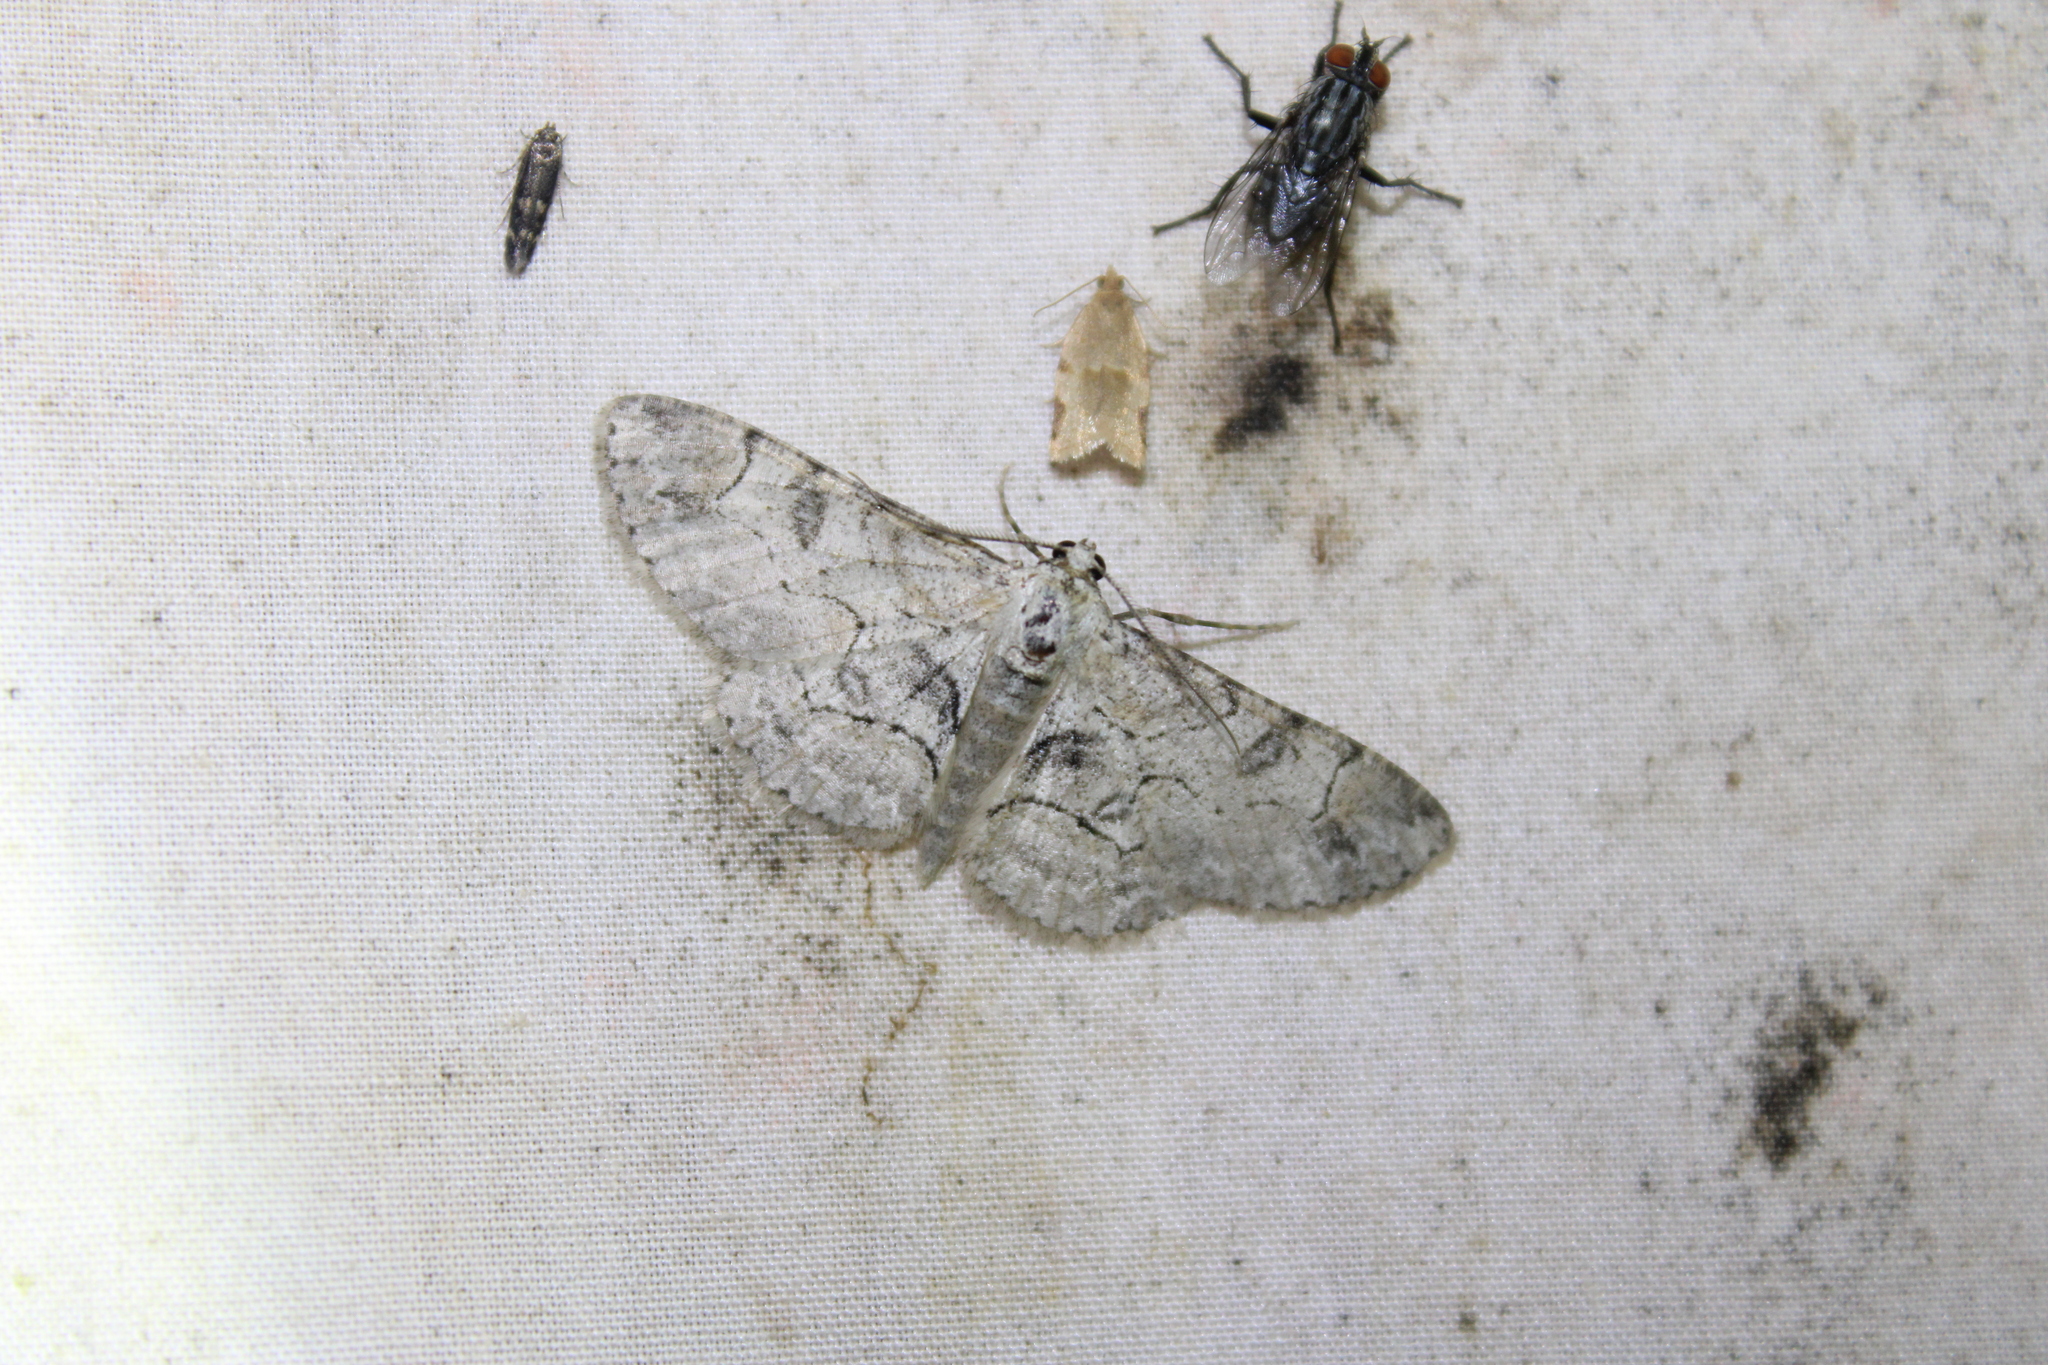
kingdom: Animalia
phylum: Arthropoda
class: Insecta
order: Lepidoptera
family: Geometridae
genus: Iridopsis
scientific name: Iridopsis larvaria
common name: Bent-line gray
